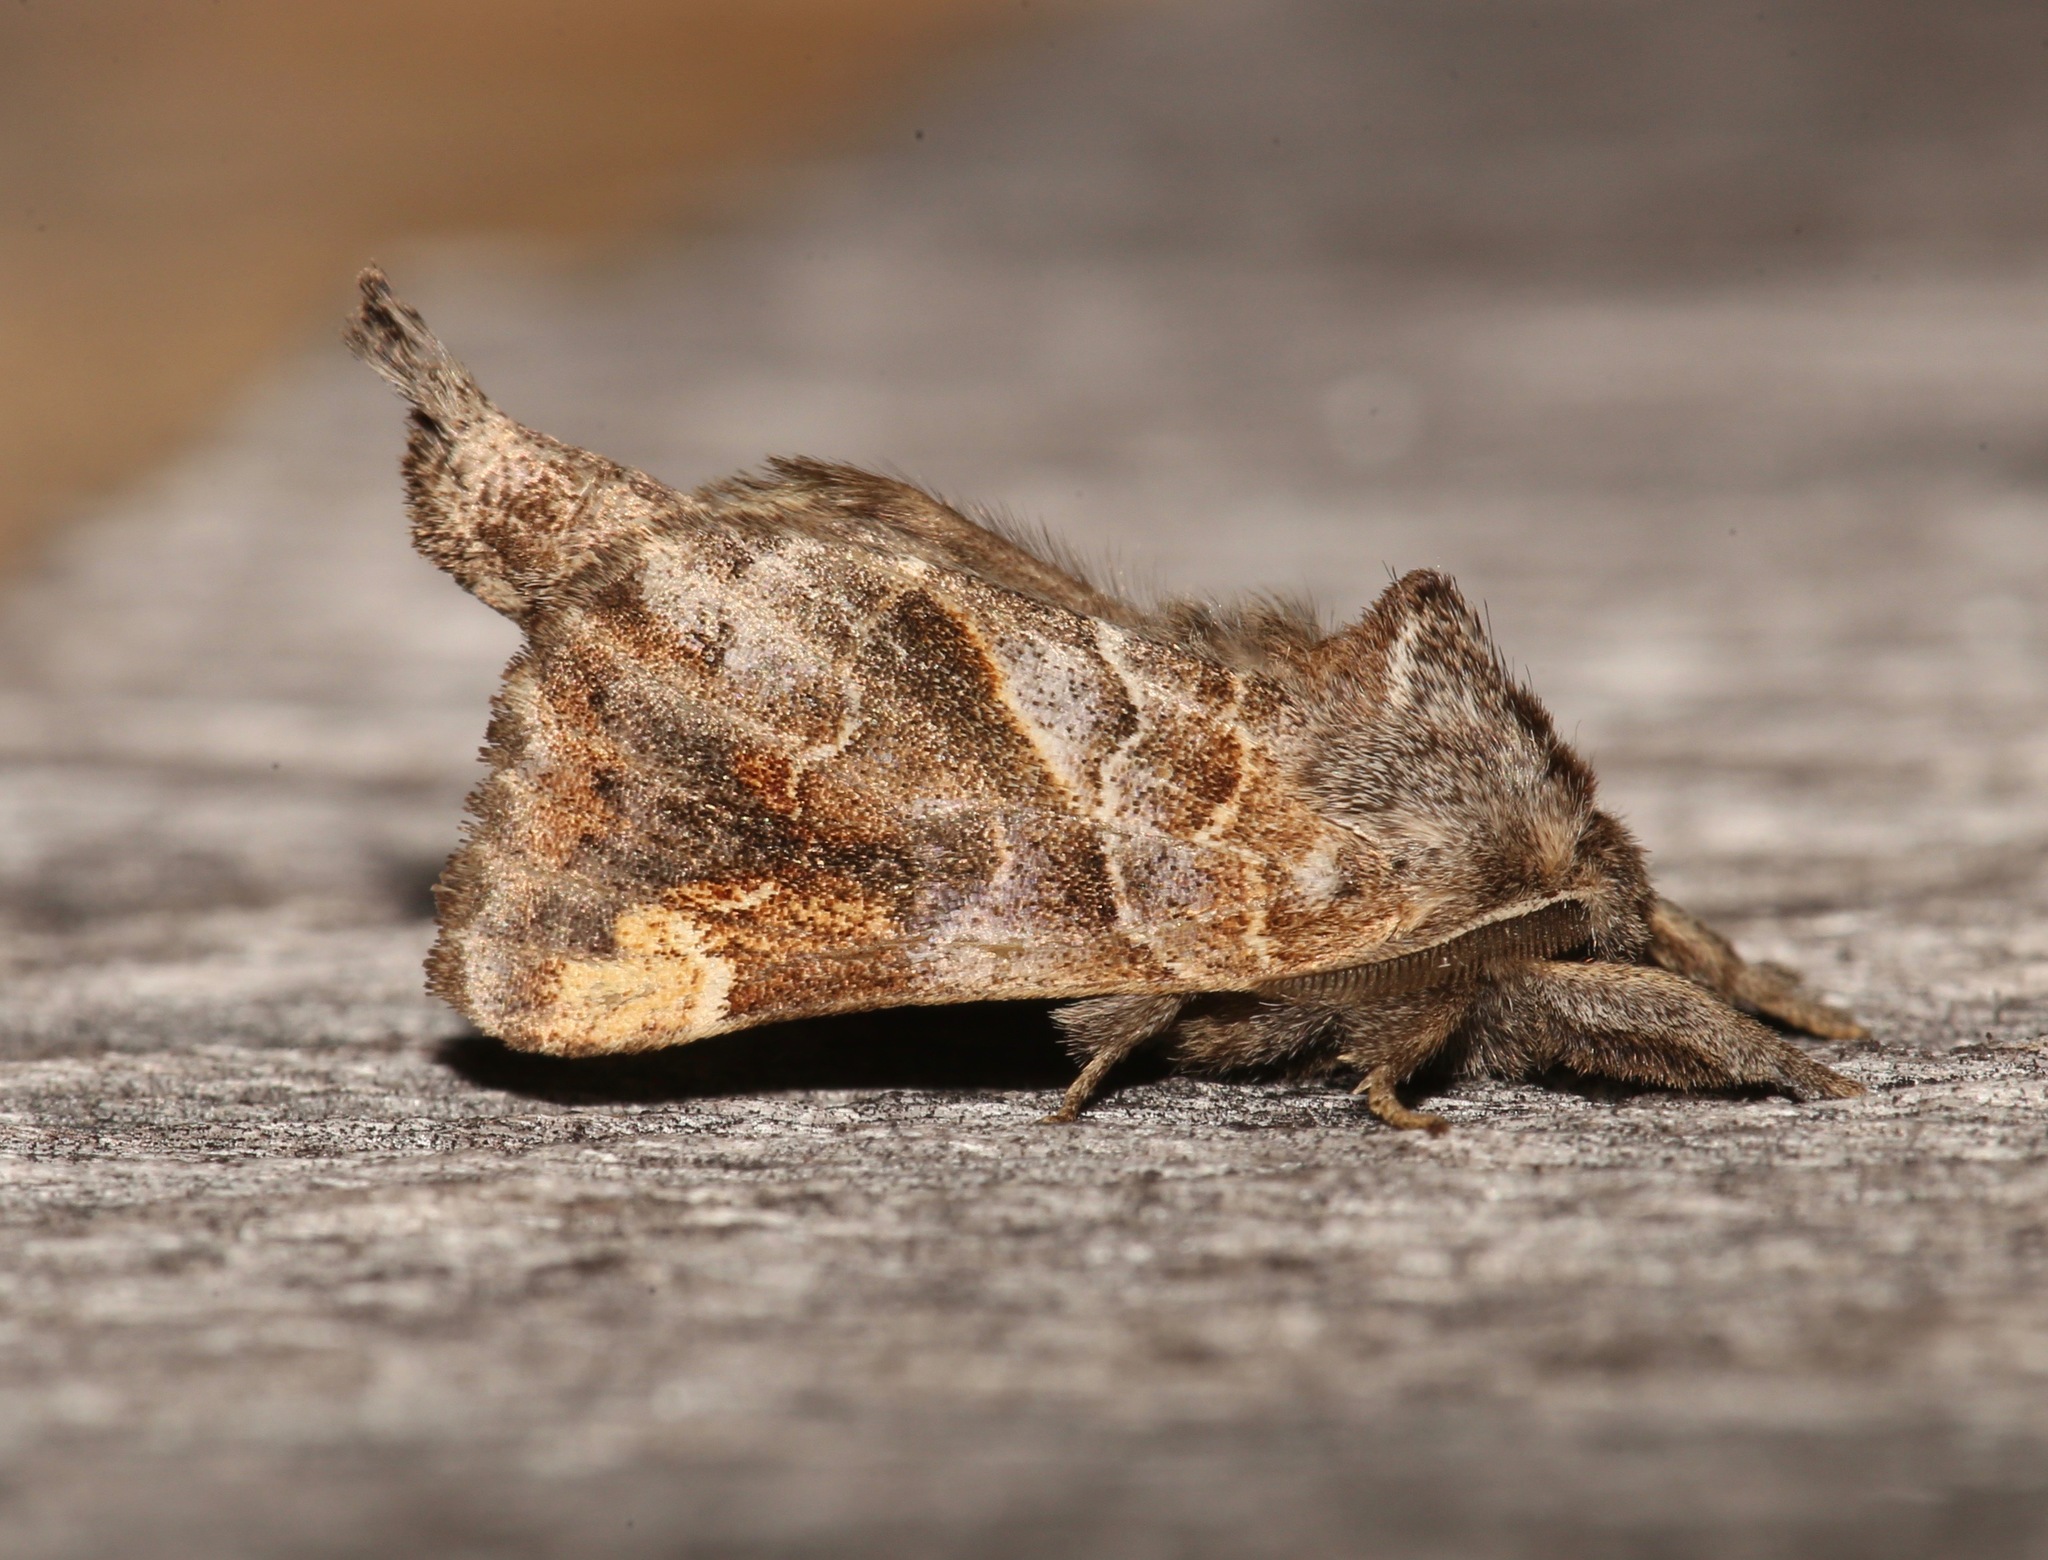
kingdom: Animalia
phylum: Arthropoda
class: Insecta
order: Lepidoptera
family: Notodontidae
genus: Clostera
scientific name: Clostera strigosa
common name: Striped chocolate-tip moth
